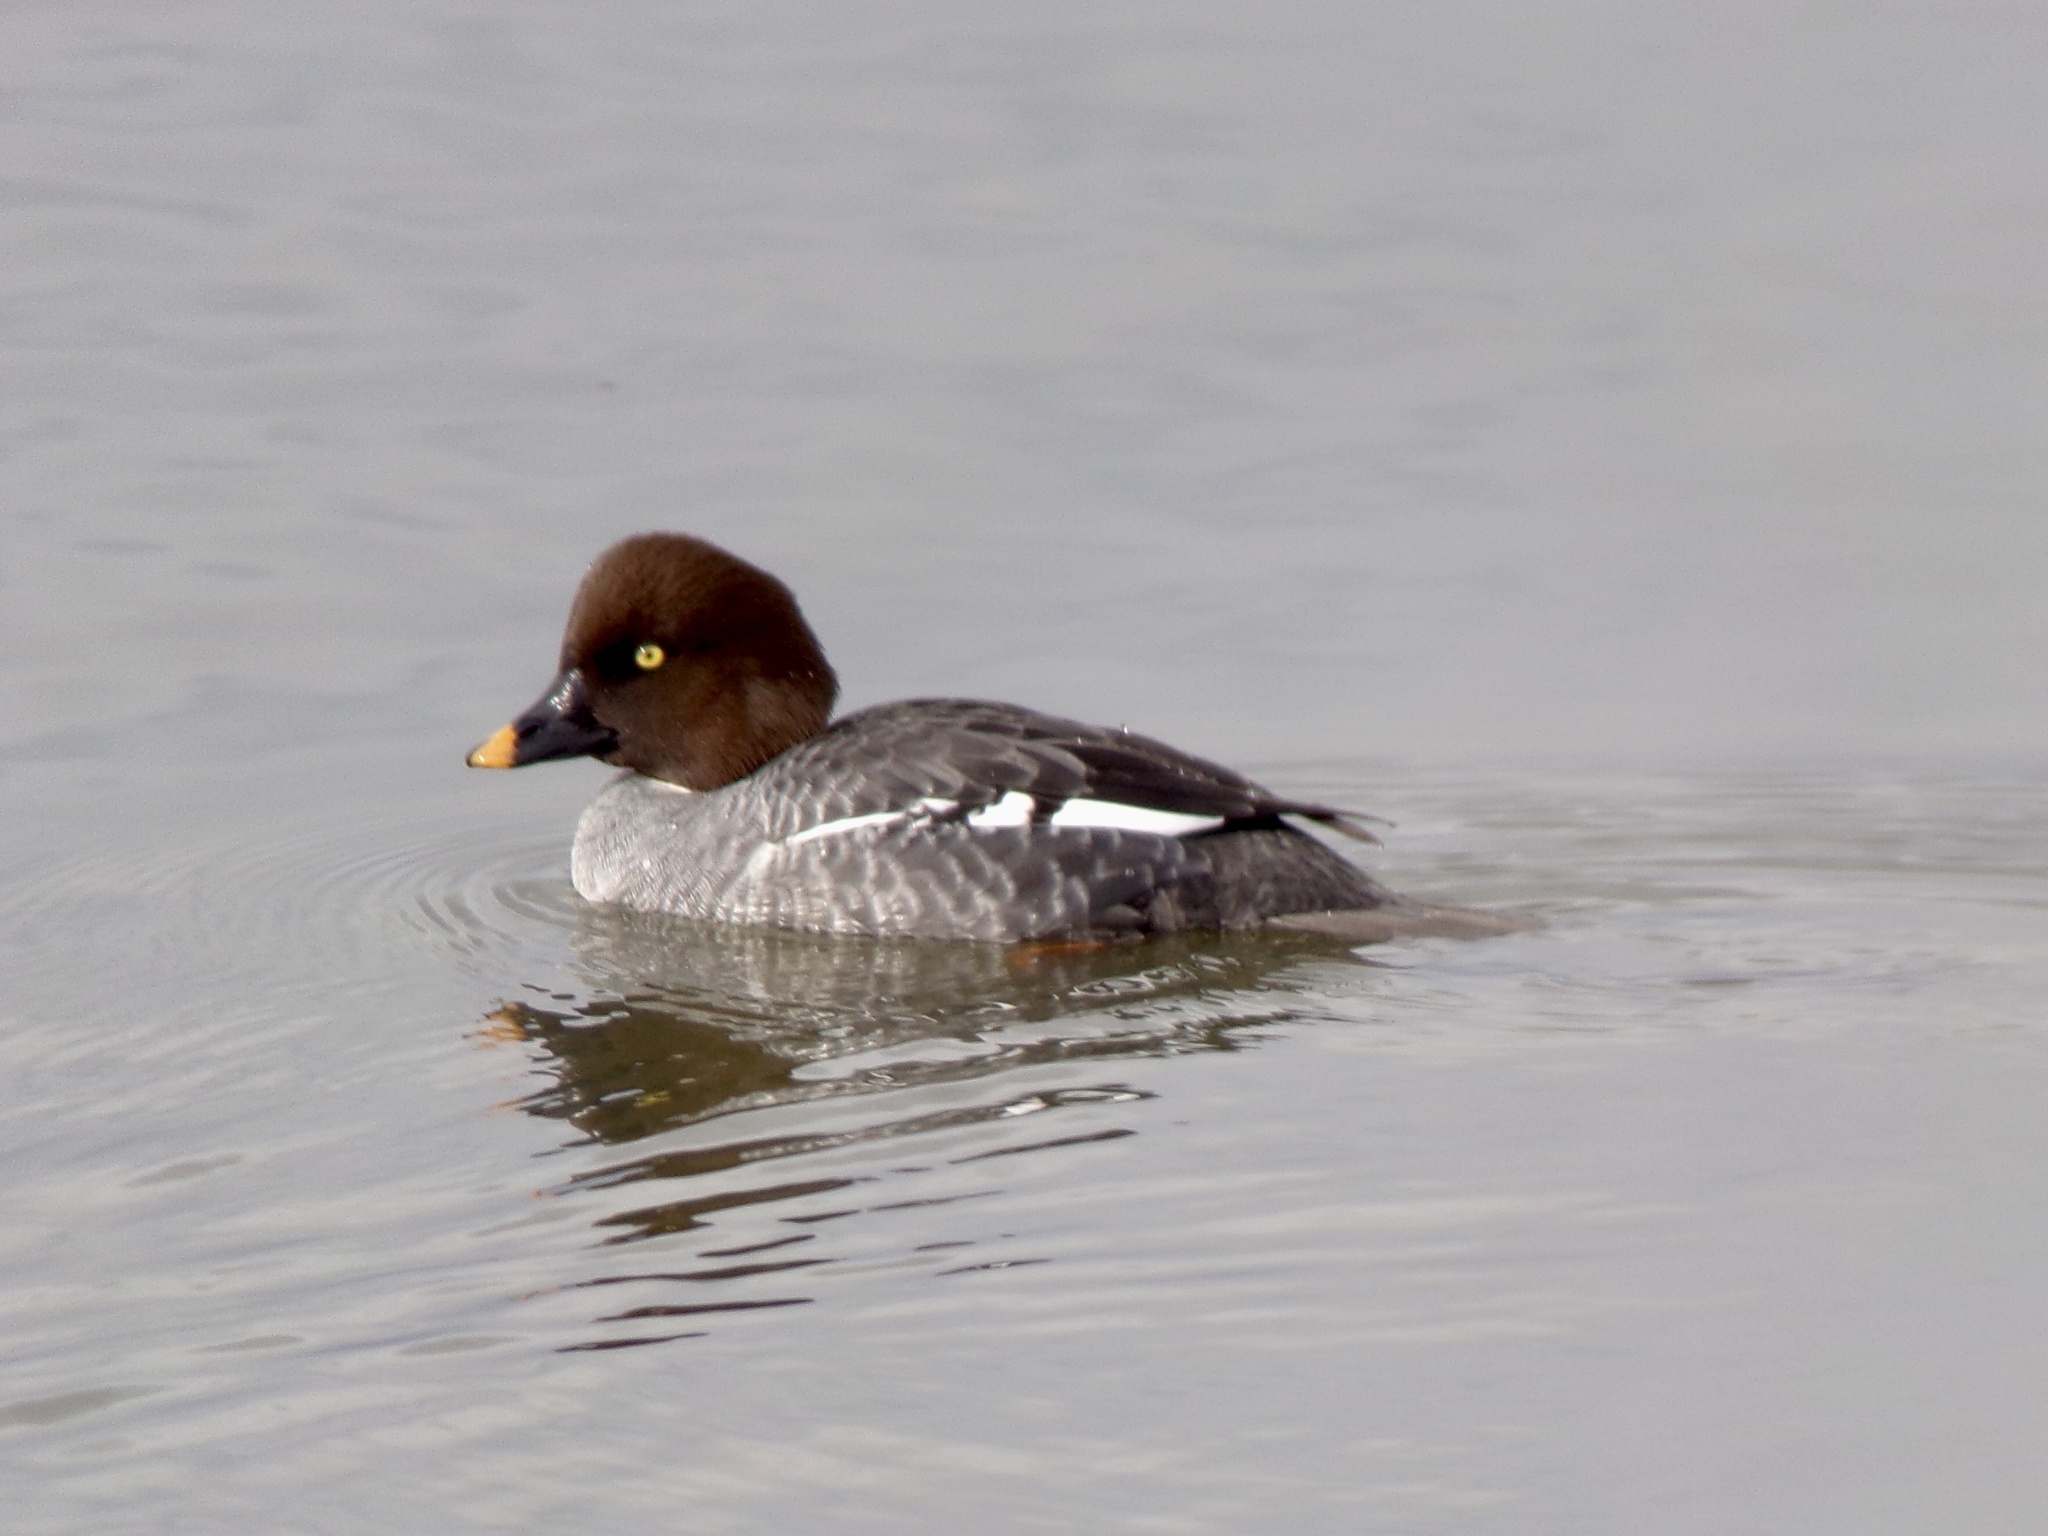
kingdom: Animalia
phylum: Chordata
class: Aves
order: Anseriformes
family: Anatidae
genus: Bucephala
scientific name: Bucephala clangula
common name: Common goldeneye
